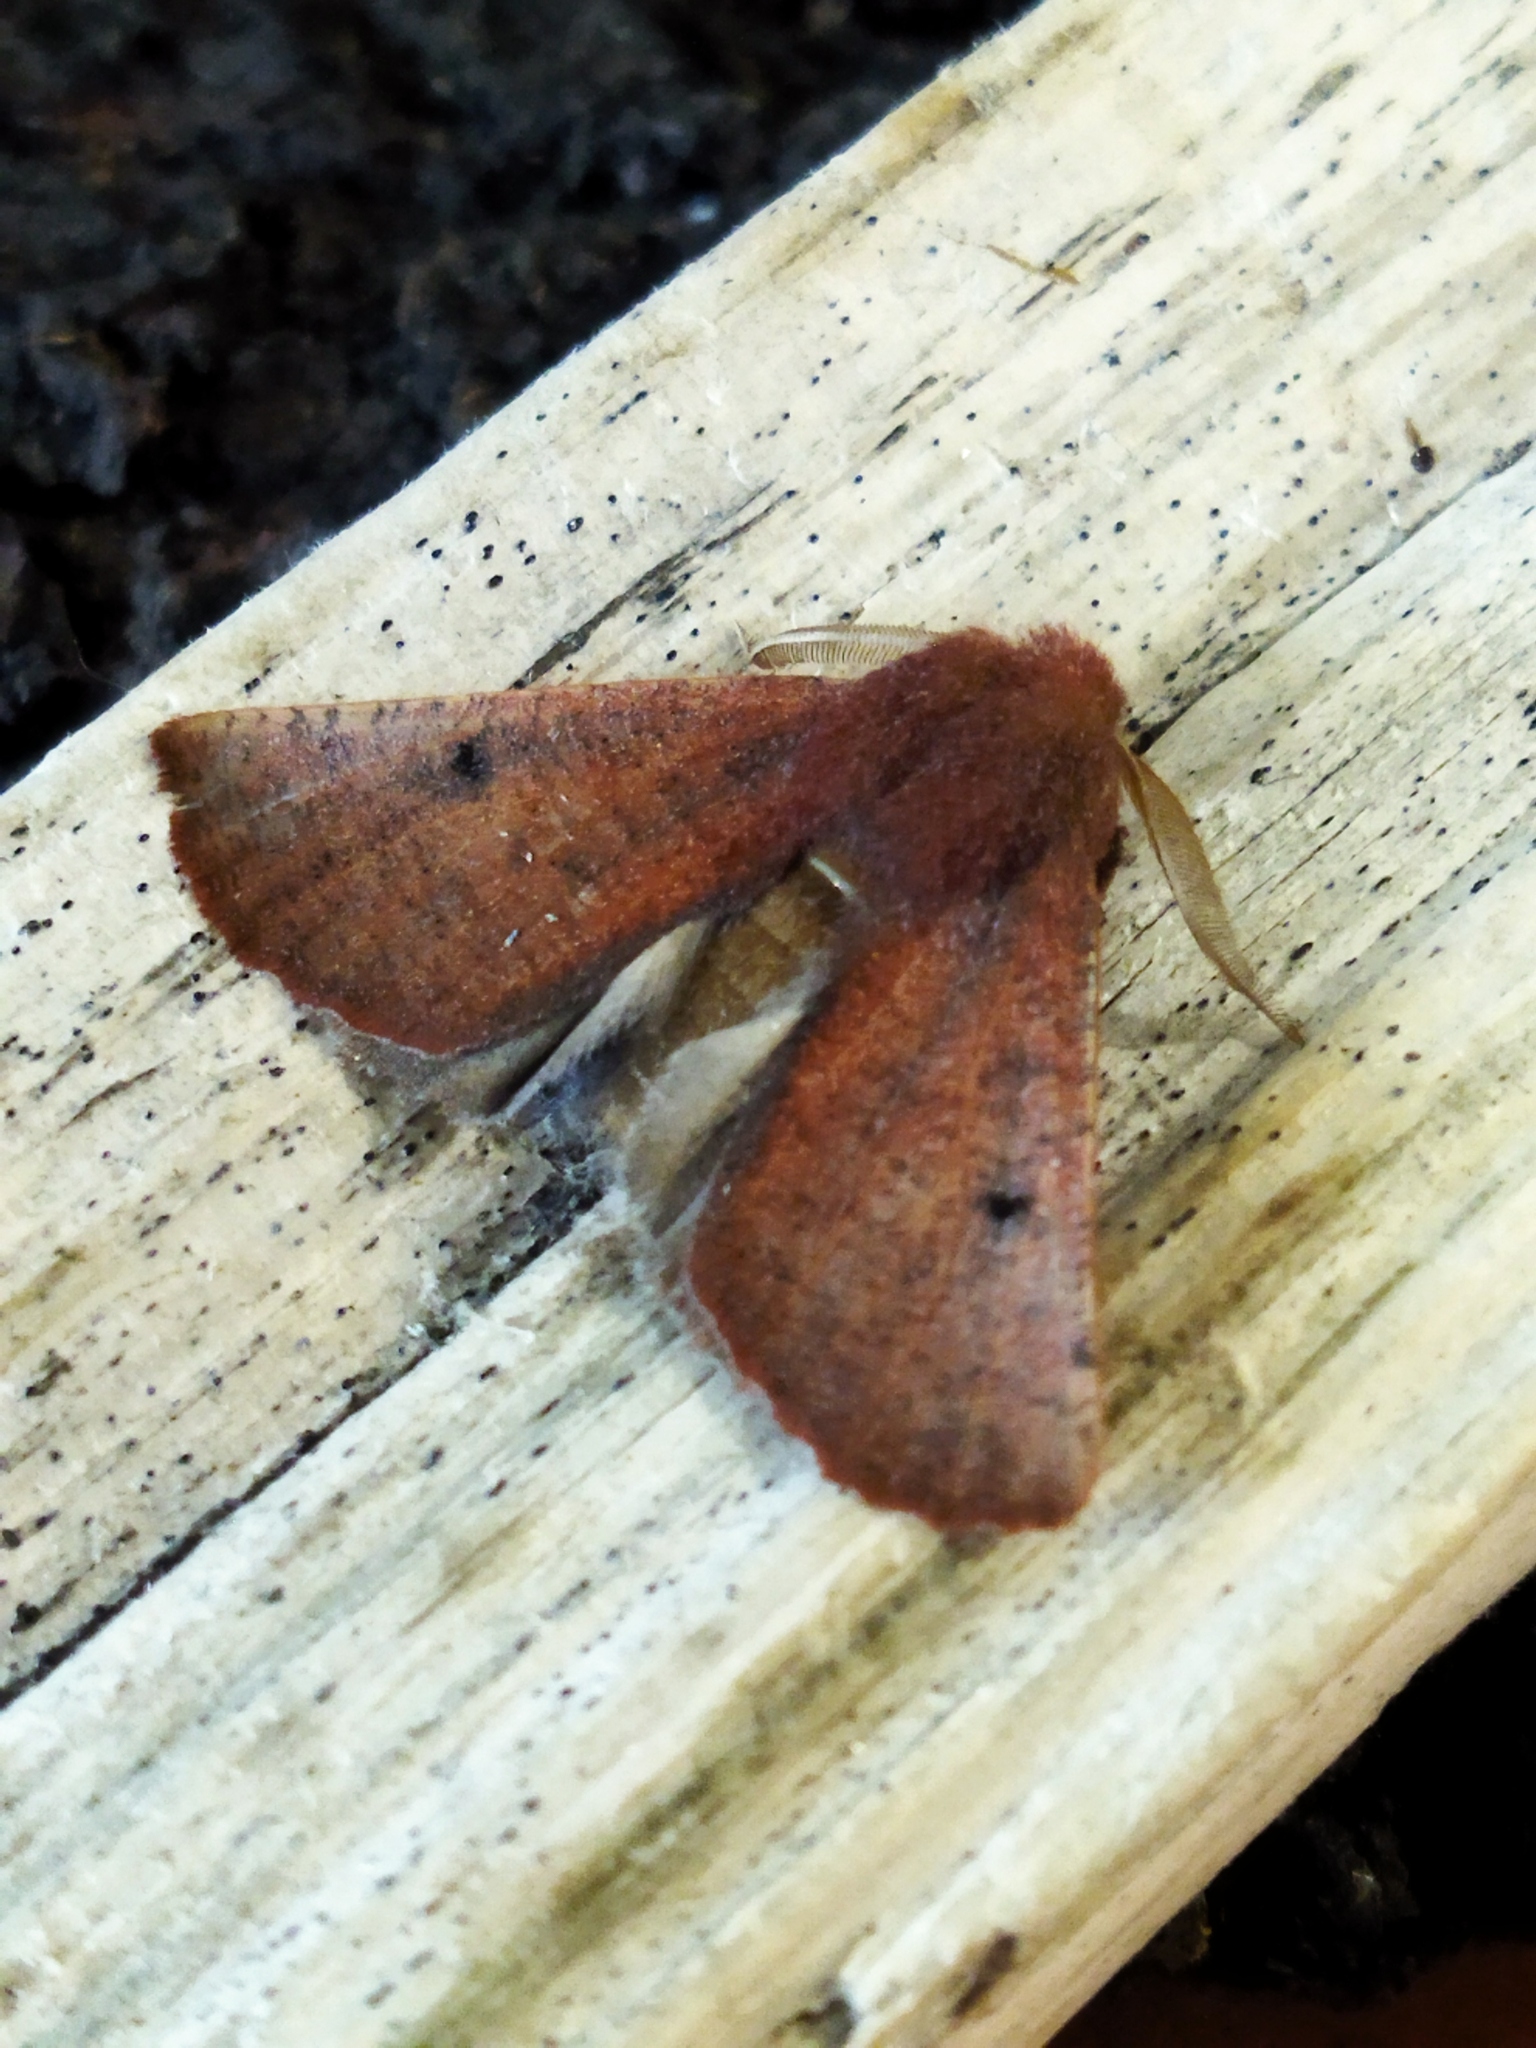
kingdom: Animalia
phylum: Arthropoda
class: Insecta
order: Lepidoptera
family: Geometridae
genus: Dasycorsa
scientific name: Dasycorsa modesta
